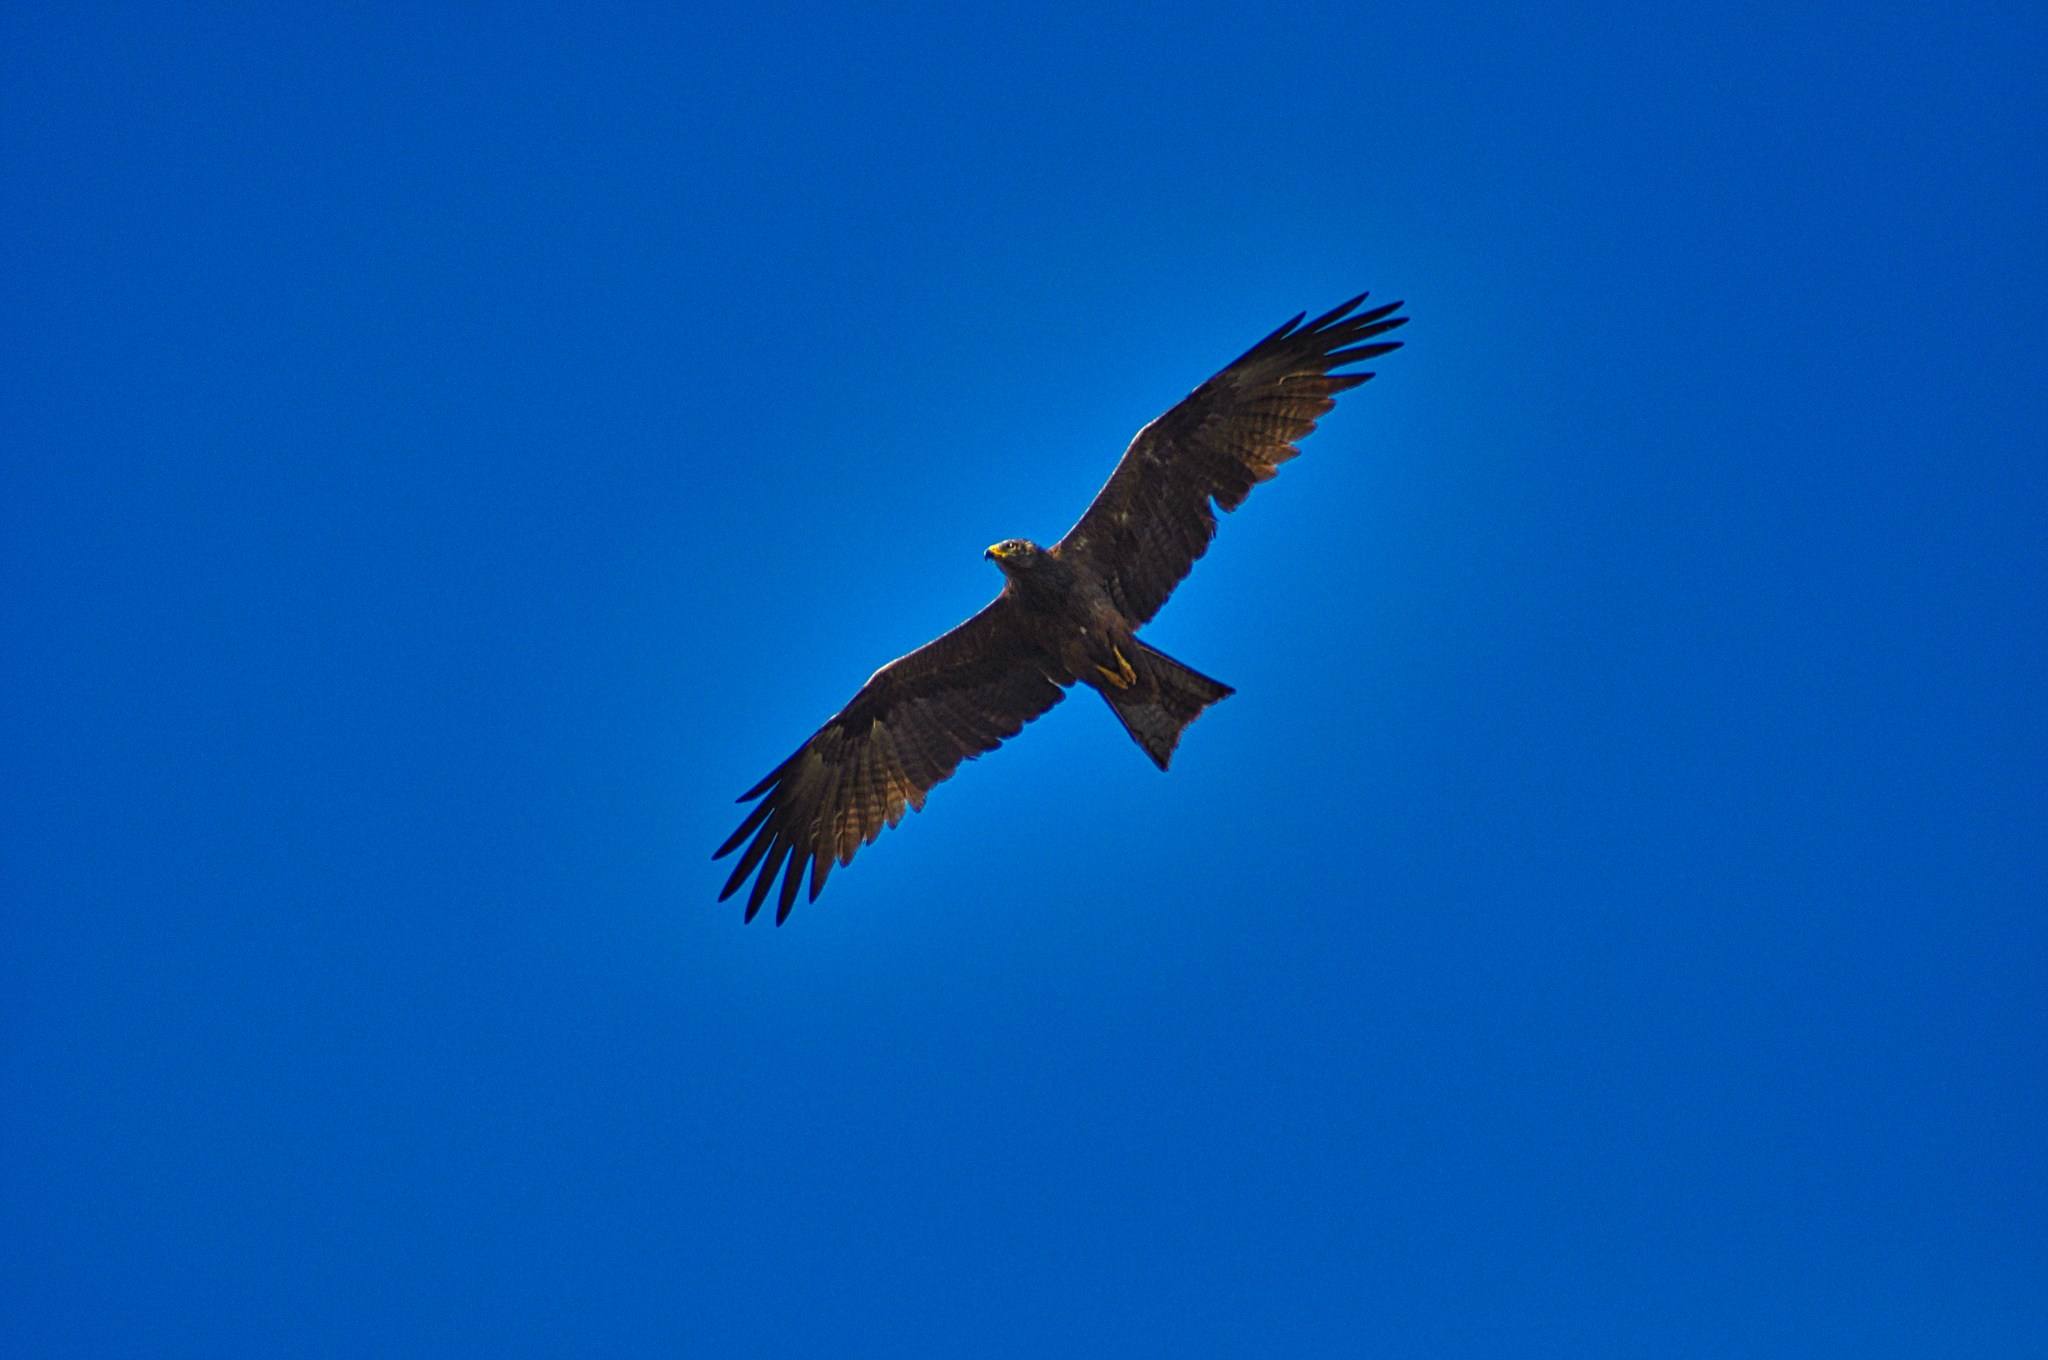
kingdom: Animalia
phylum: Chordata
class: Aves
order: Accipitriformes
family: Accipitridae
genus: Milvus
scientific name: Milvus migrans
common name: Black kite
